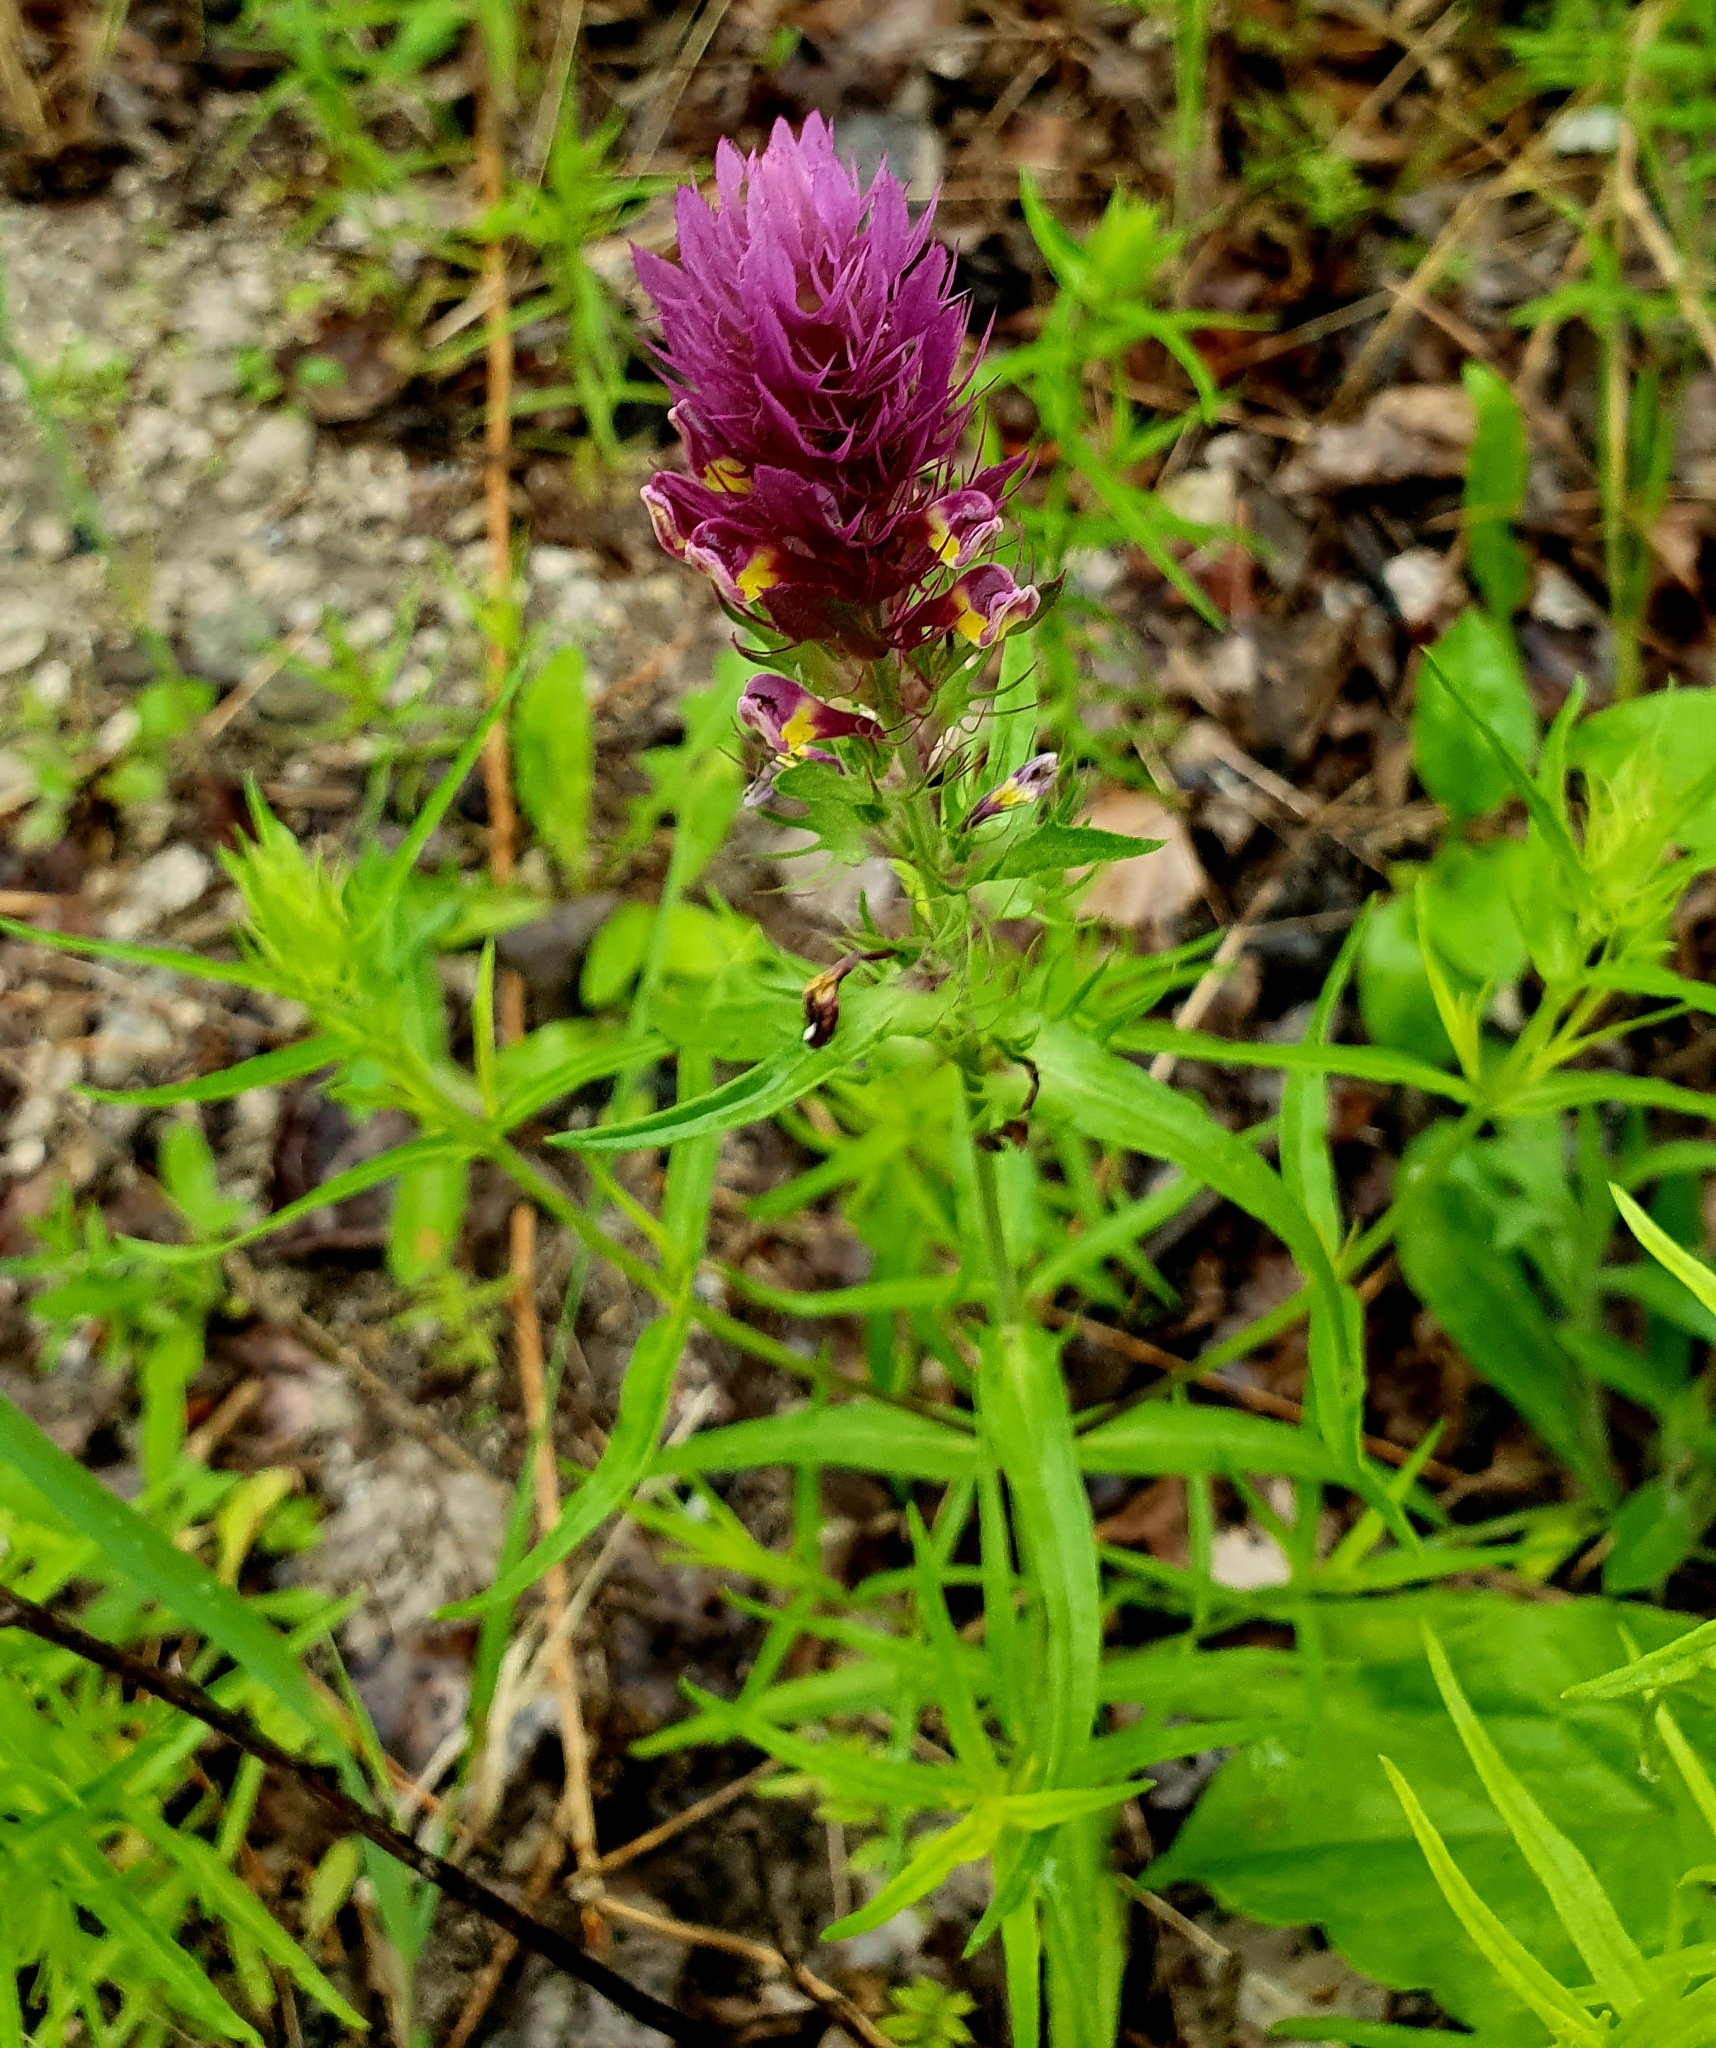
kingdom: Plantae
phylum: Tracheophyta
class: Magnoliopsida
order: Lamiales
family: Orobanchaceae
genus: Melampyrum
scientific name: Melampyrum arvense
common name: Field cow-wheat
